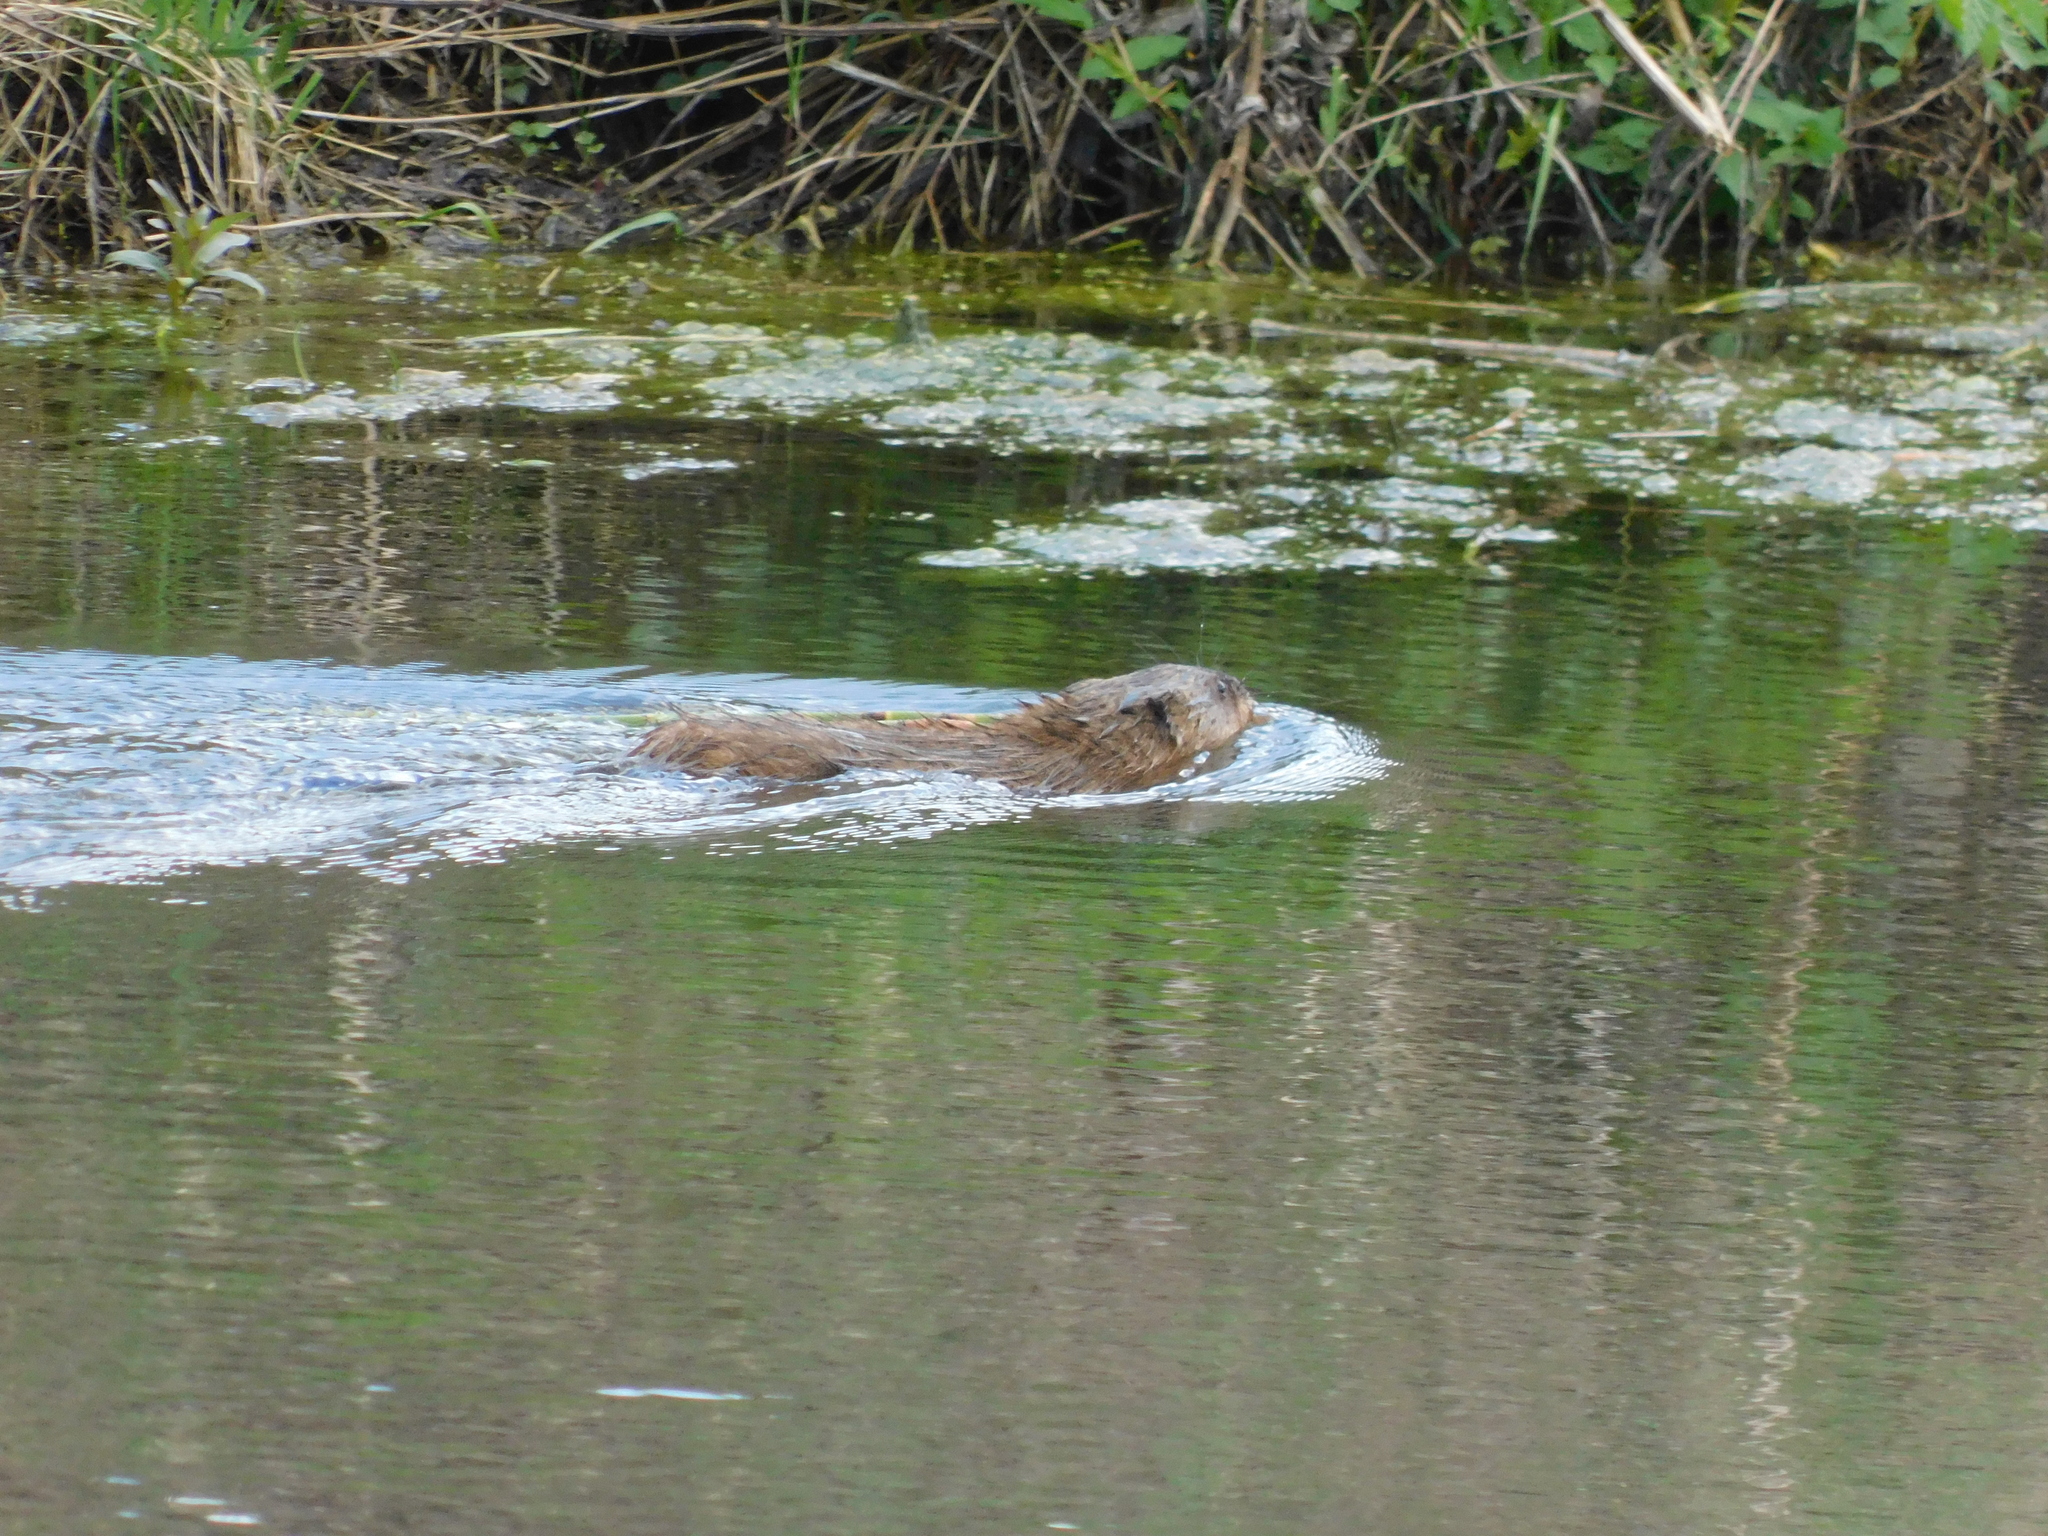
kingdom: Animalia
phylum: Chordata
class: Mammalia
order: Rodentia
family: Cricetidae
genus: Ondatra
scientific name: Ondatra zibethicus
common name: Muskrat
